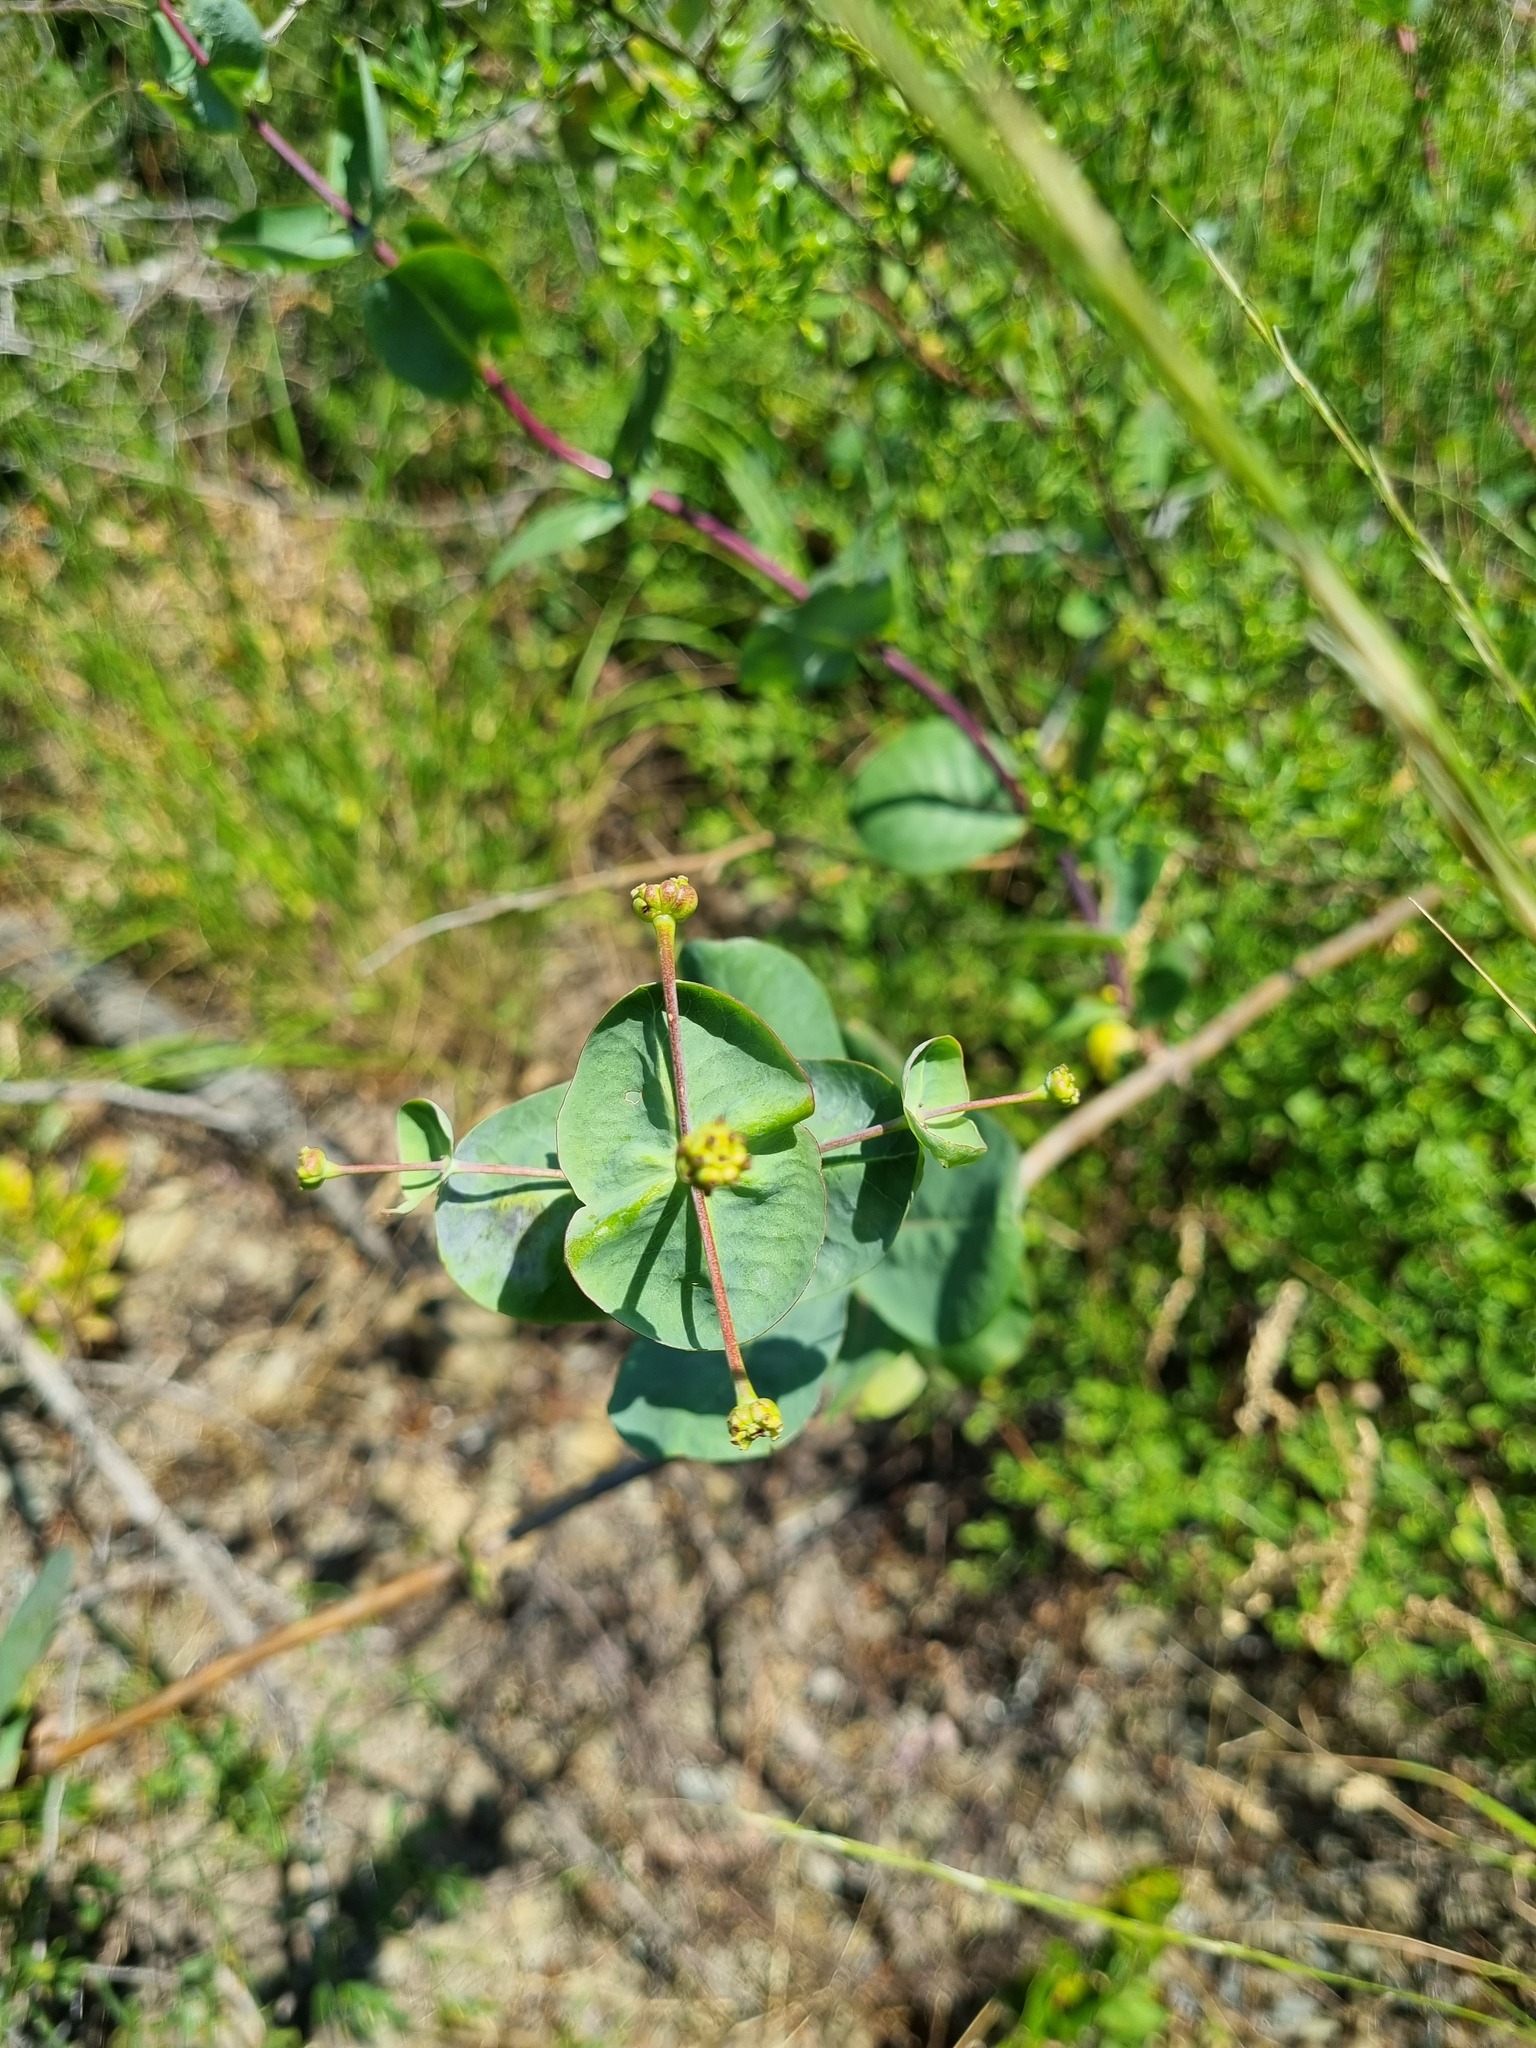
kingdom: Plantae
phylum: Tracheophyta
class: Magnoliopsida
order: Dipsacales
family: Caprifoliaceae
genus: Lonicera
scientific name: Lonicera caprifolium
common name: Perfoliate honeysuckle
